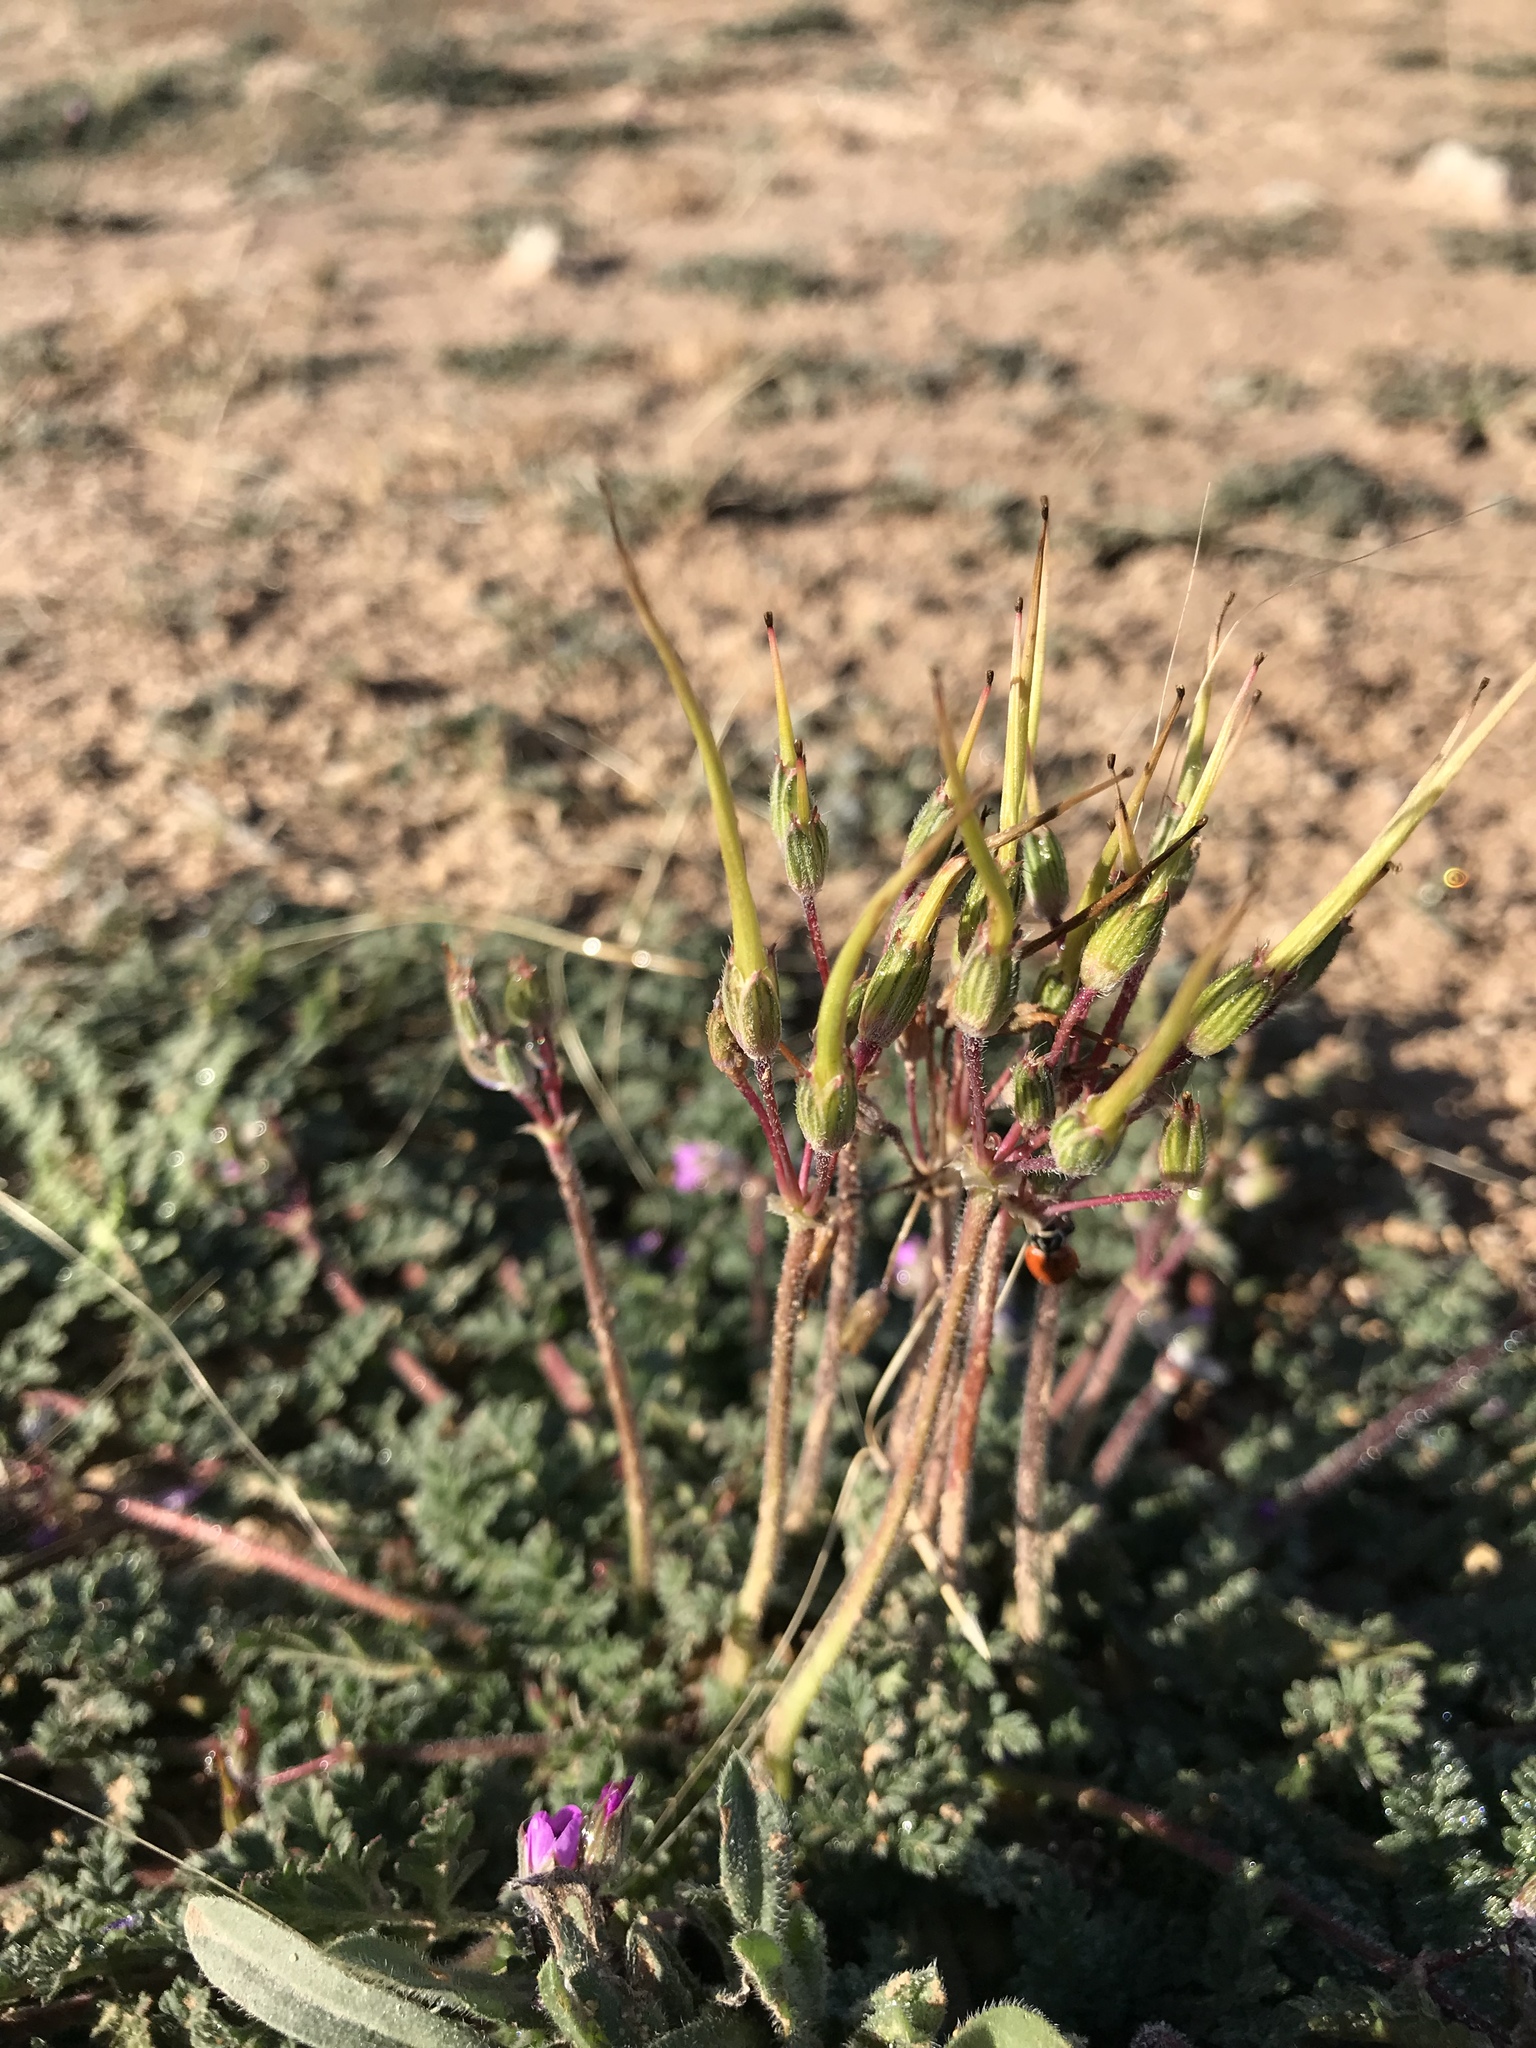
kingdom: Plantae
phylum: Tracheophyta
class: Magnoliopsida
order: Geraniales
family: Geraniaceae
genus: Erodium
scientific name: Erodium cicutarium
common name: Common stork's-bill
